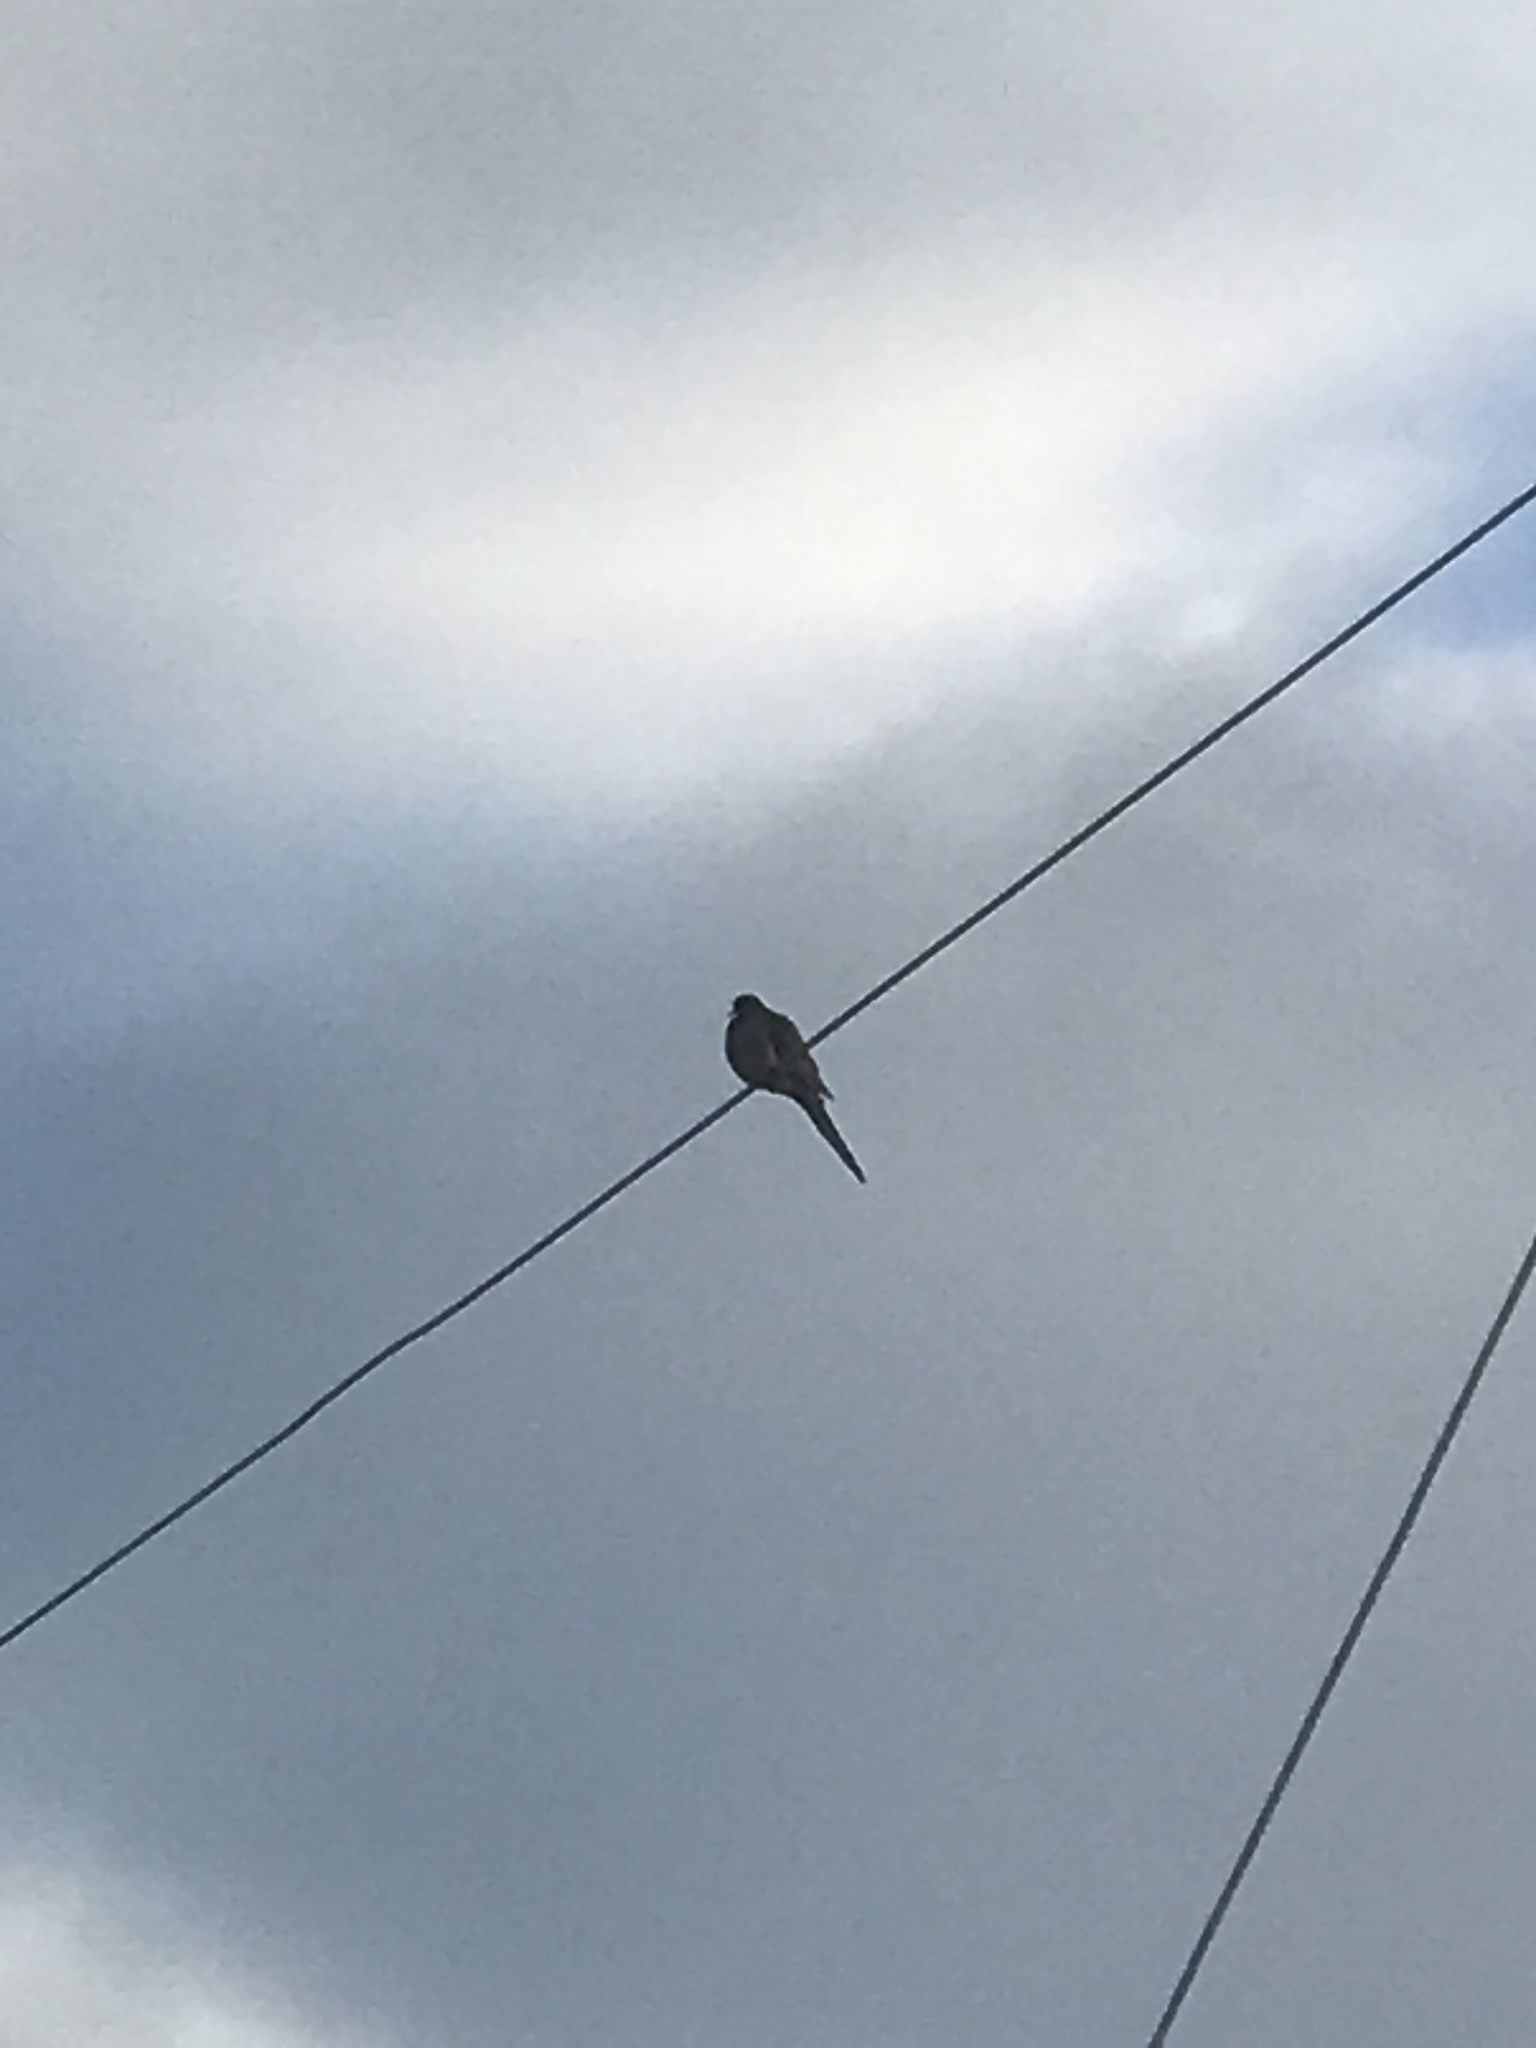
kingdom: Animalia
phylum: Chordata
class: Aves
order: Columbiformes
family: Columbidae
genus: Zenaida
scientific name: Zenaida macroura
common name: Mourning dove
